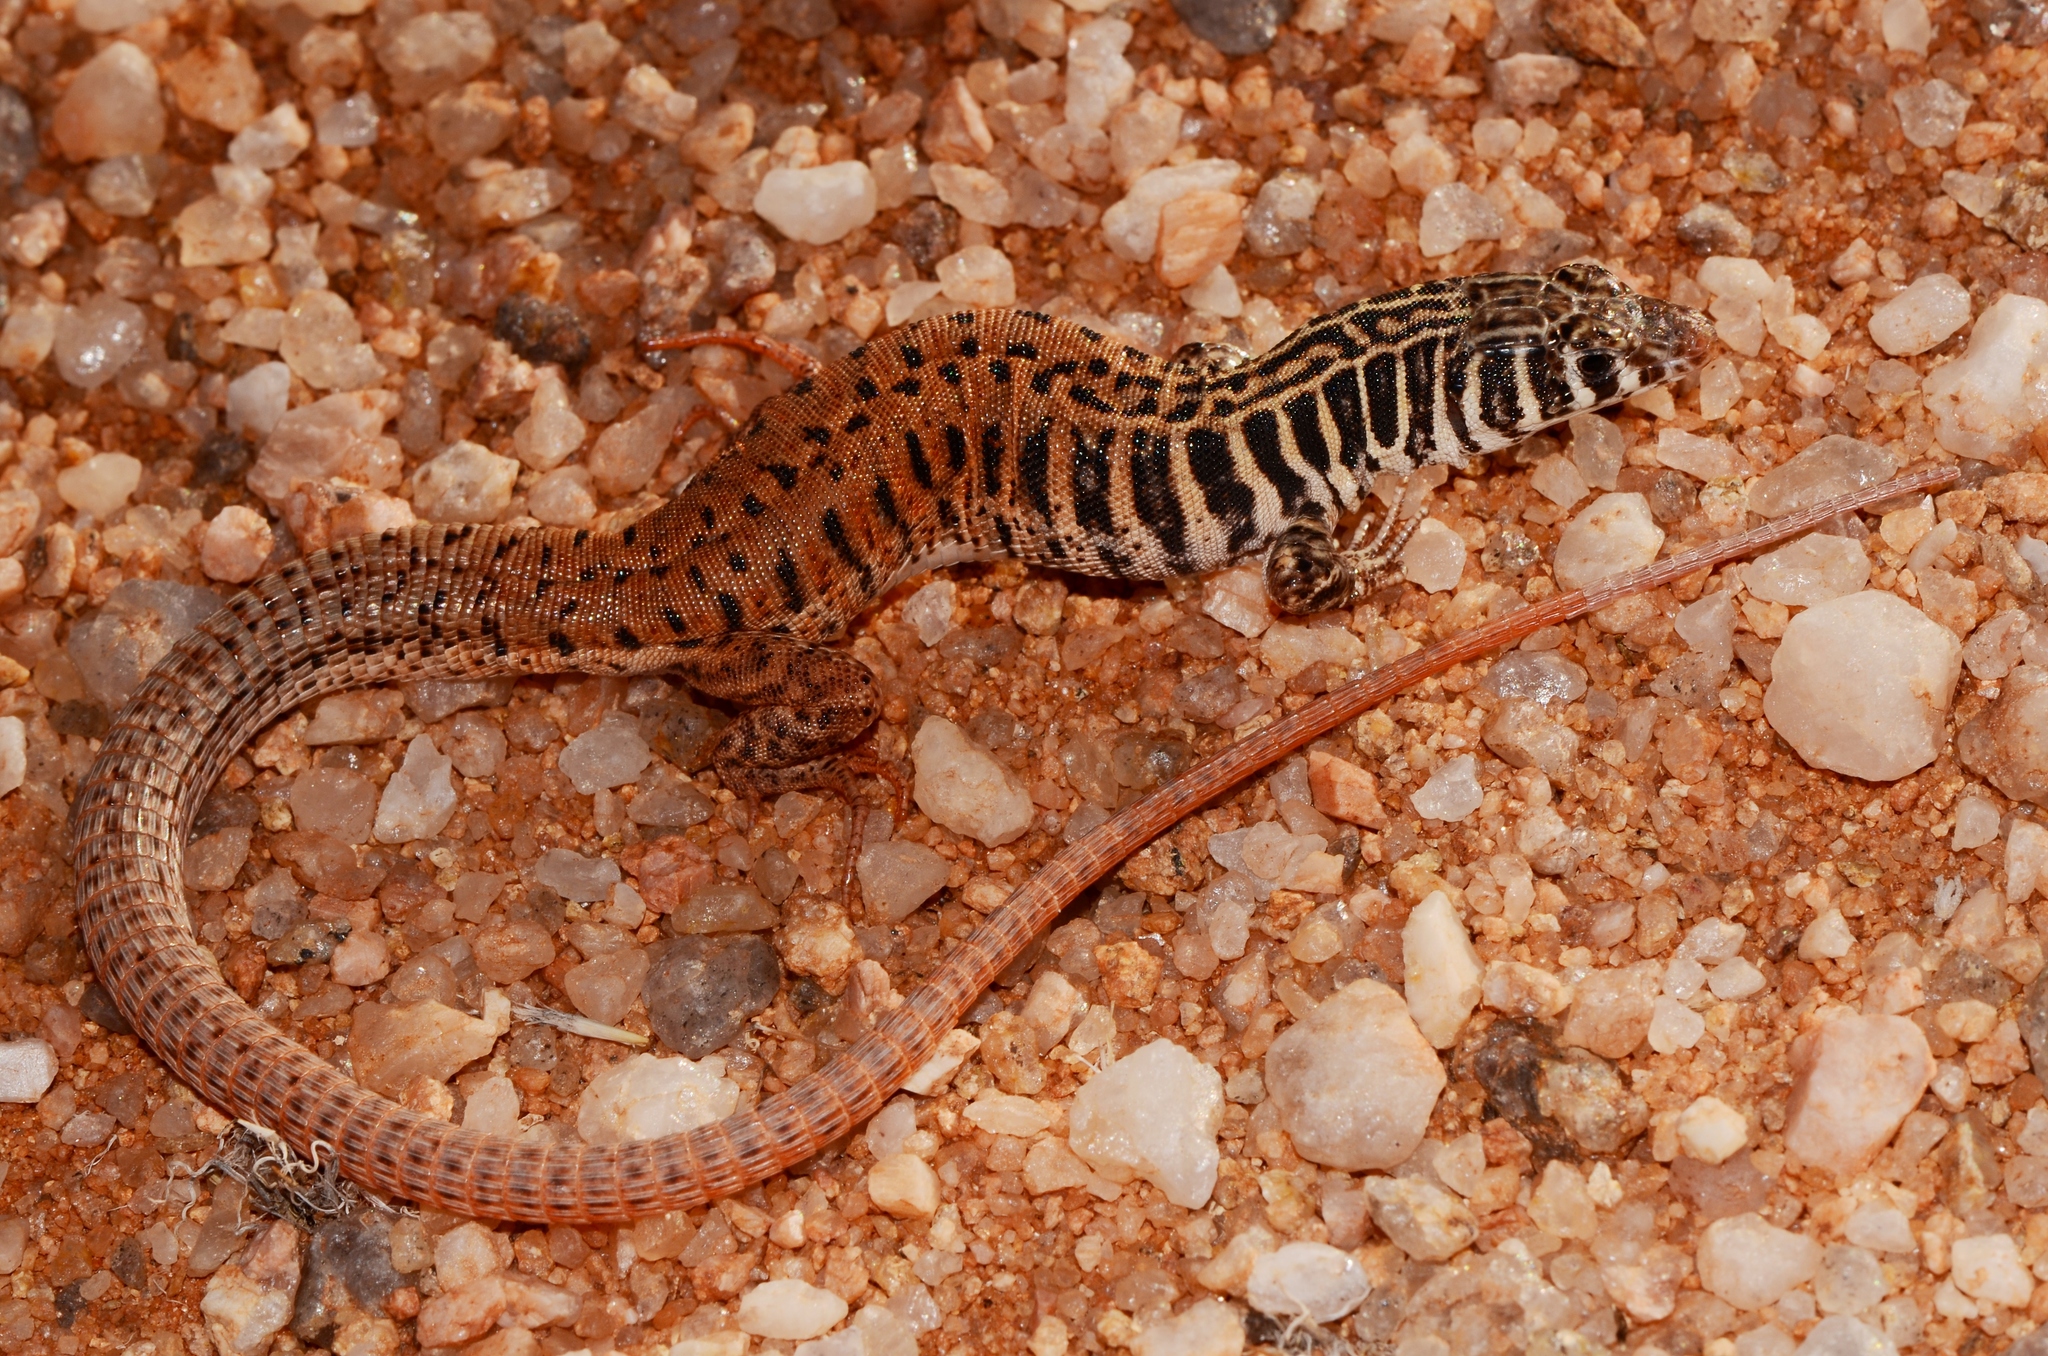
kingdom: Animalia
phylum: Chordata
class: Squamata
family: Lacertidae
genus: Nucras
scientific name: Nucras tessellata
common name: Western sandveld lizard
